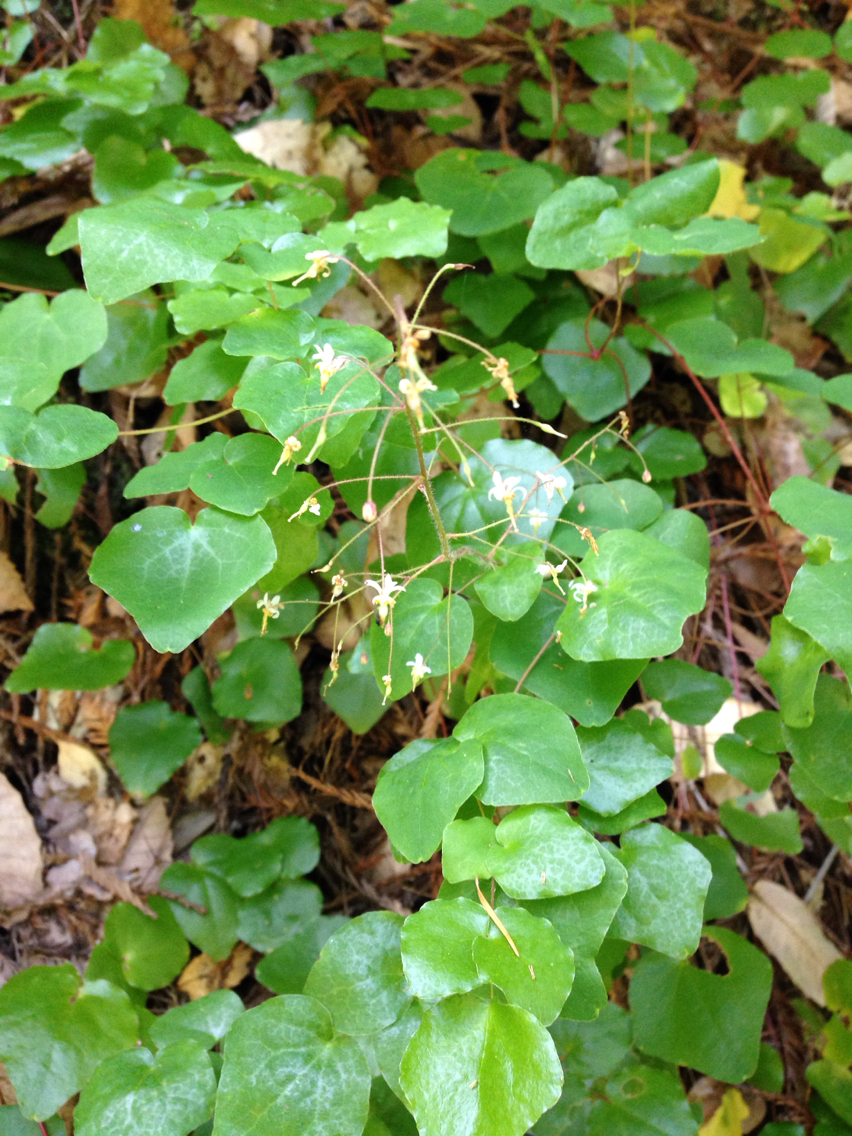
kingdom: Plantae
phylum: Tracheophyta
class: Magnoliopsida
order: Ranunculales
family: Berberidaceae
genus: Vancouveria
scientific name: Vancouveria planipetala
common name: Redwood-ivy
